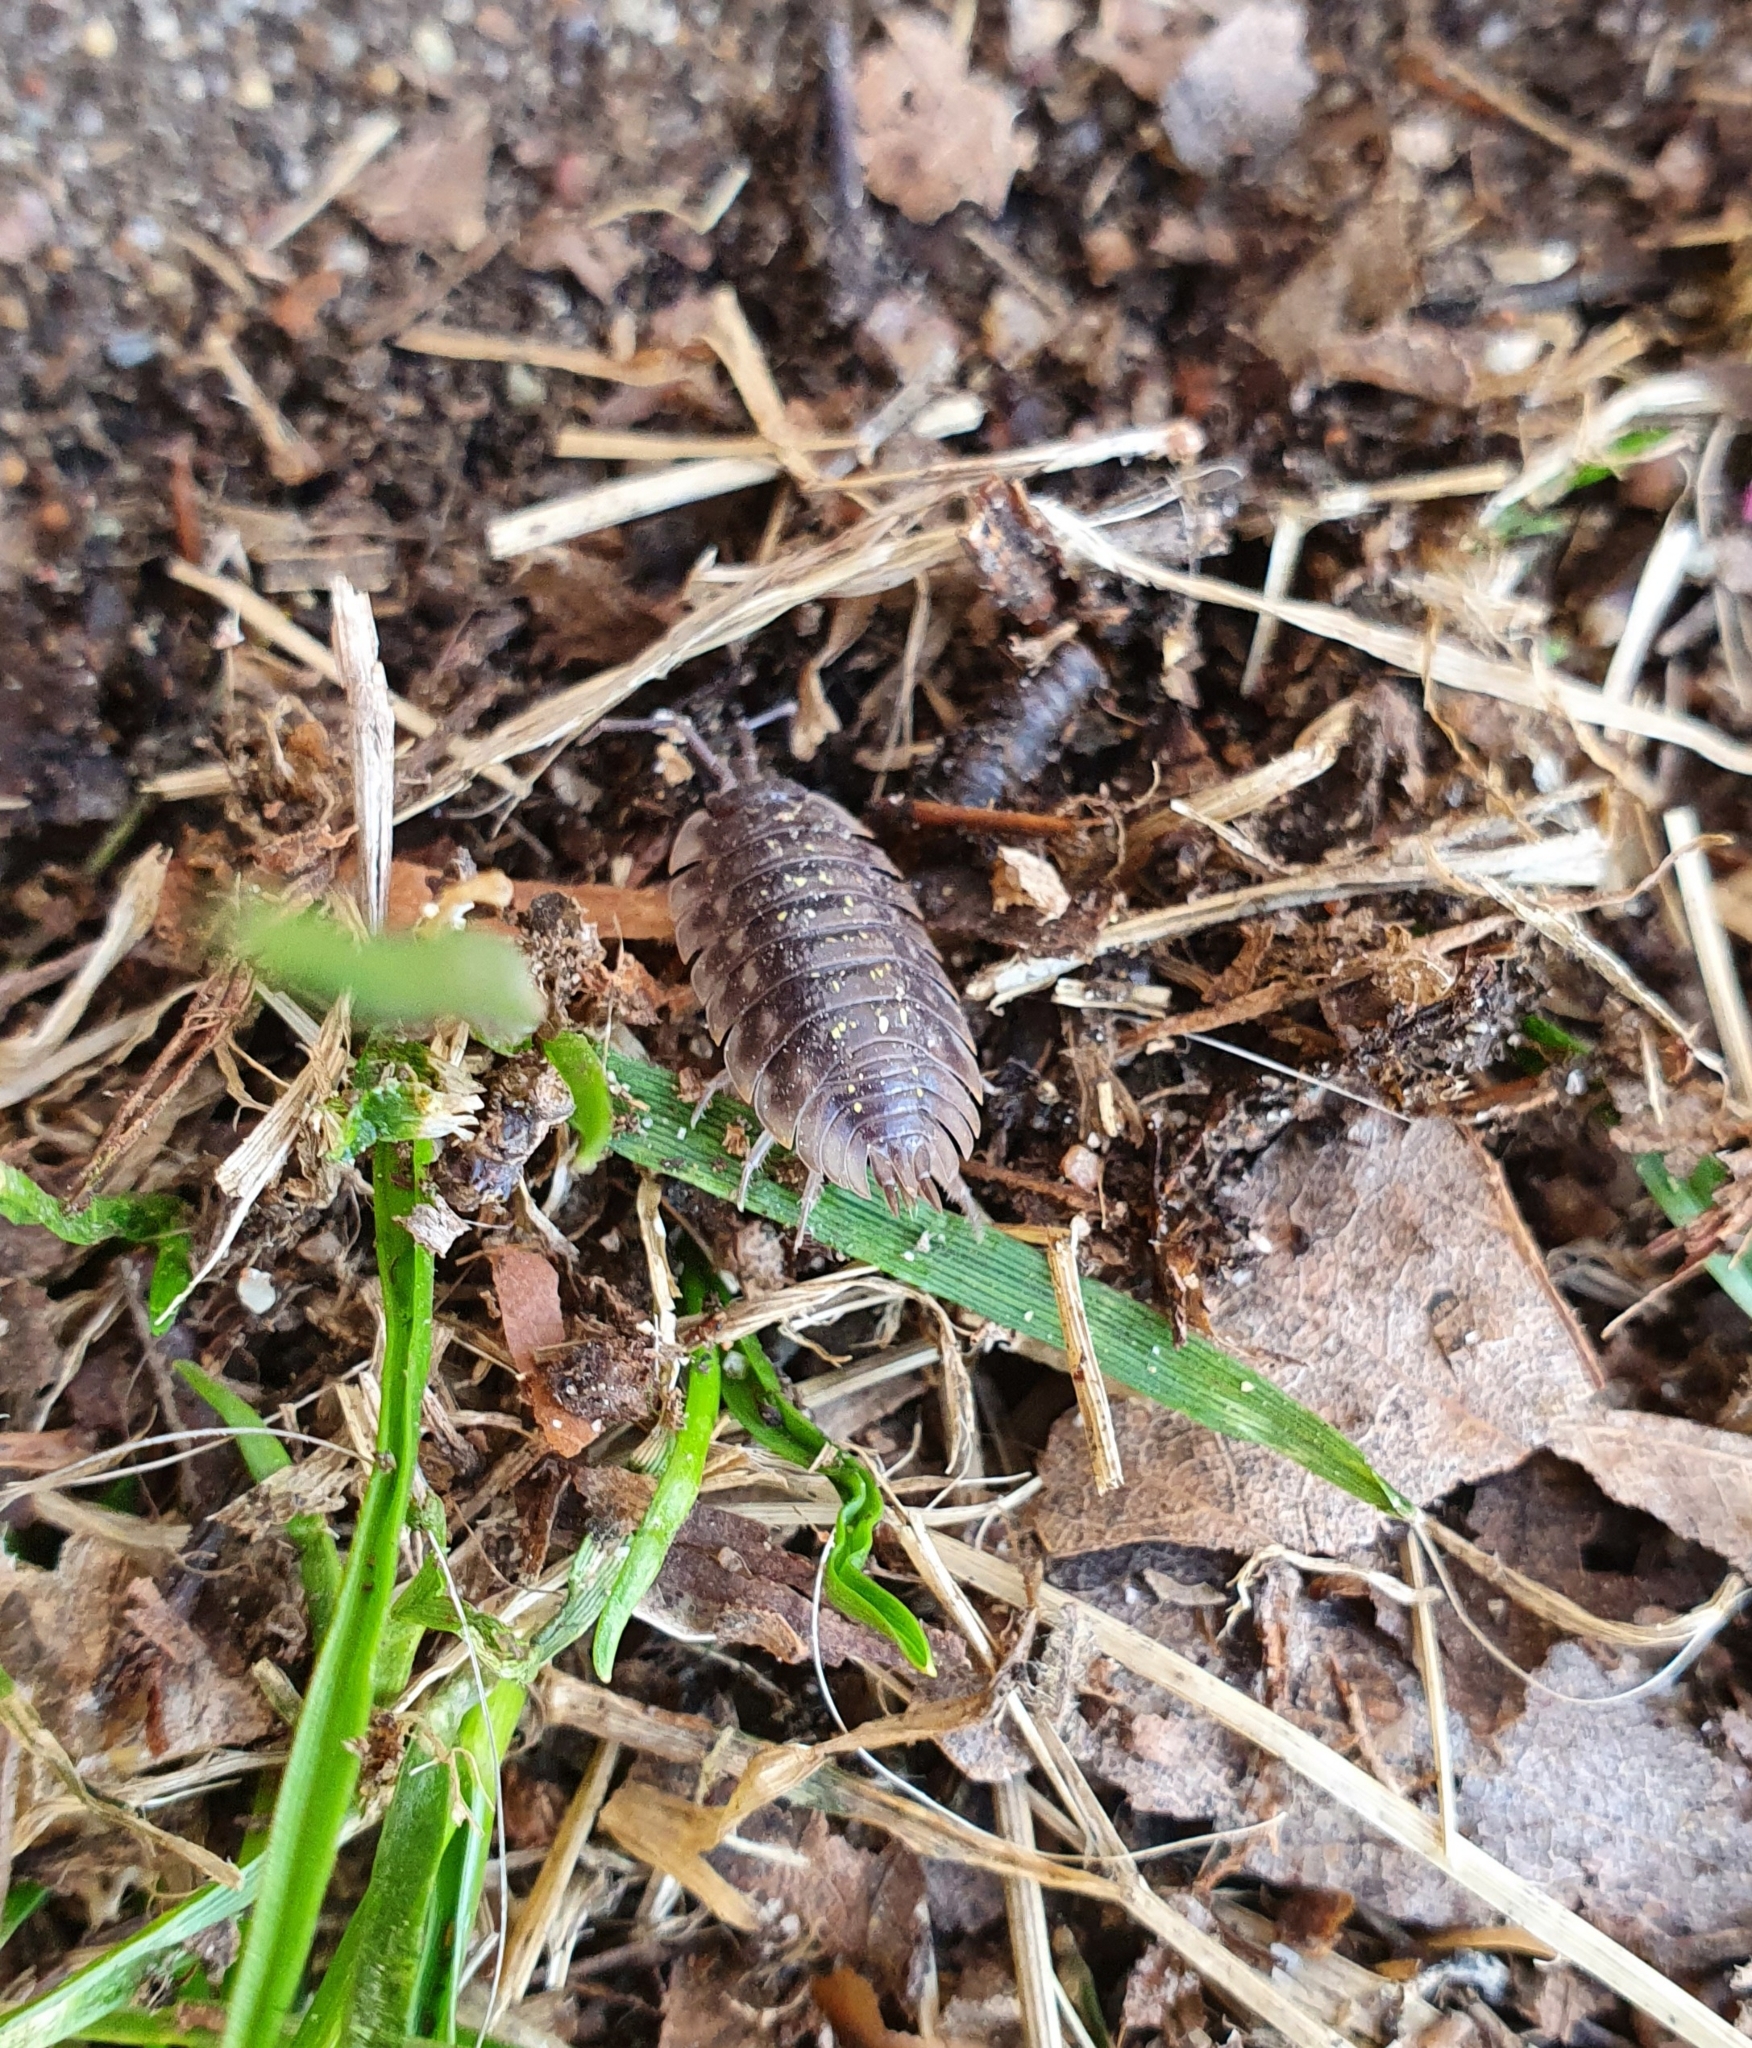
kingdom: Animalia
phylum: Arthropoda
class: Malacostraca
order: Isopoda
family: Oniscidae
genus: Oniscus
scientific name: Oniscus asellus
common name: Common shiny woodlouse
